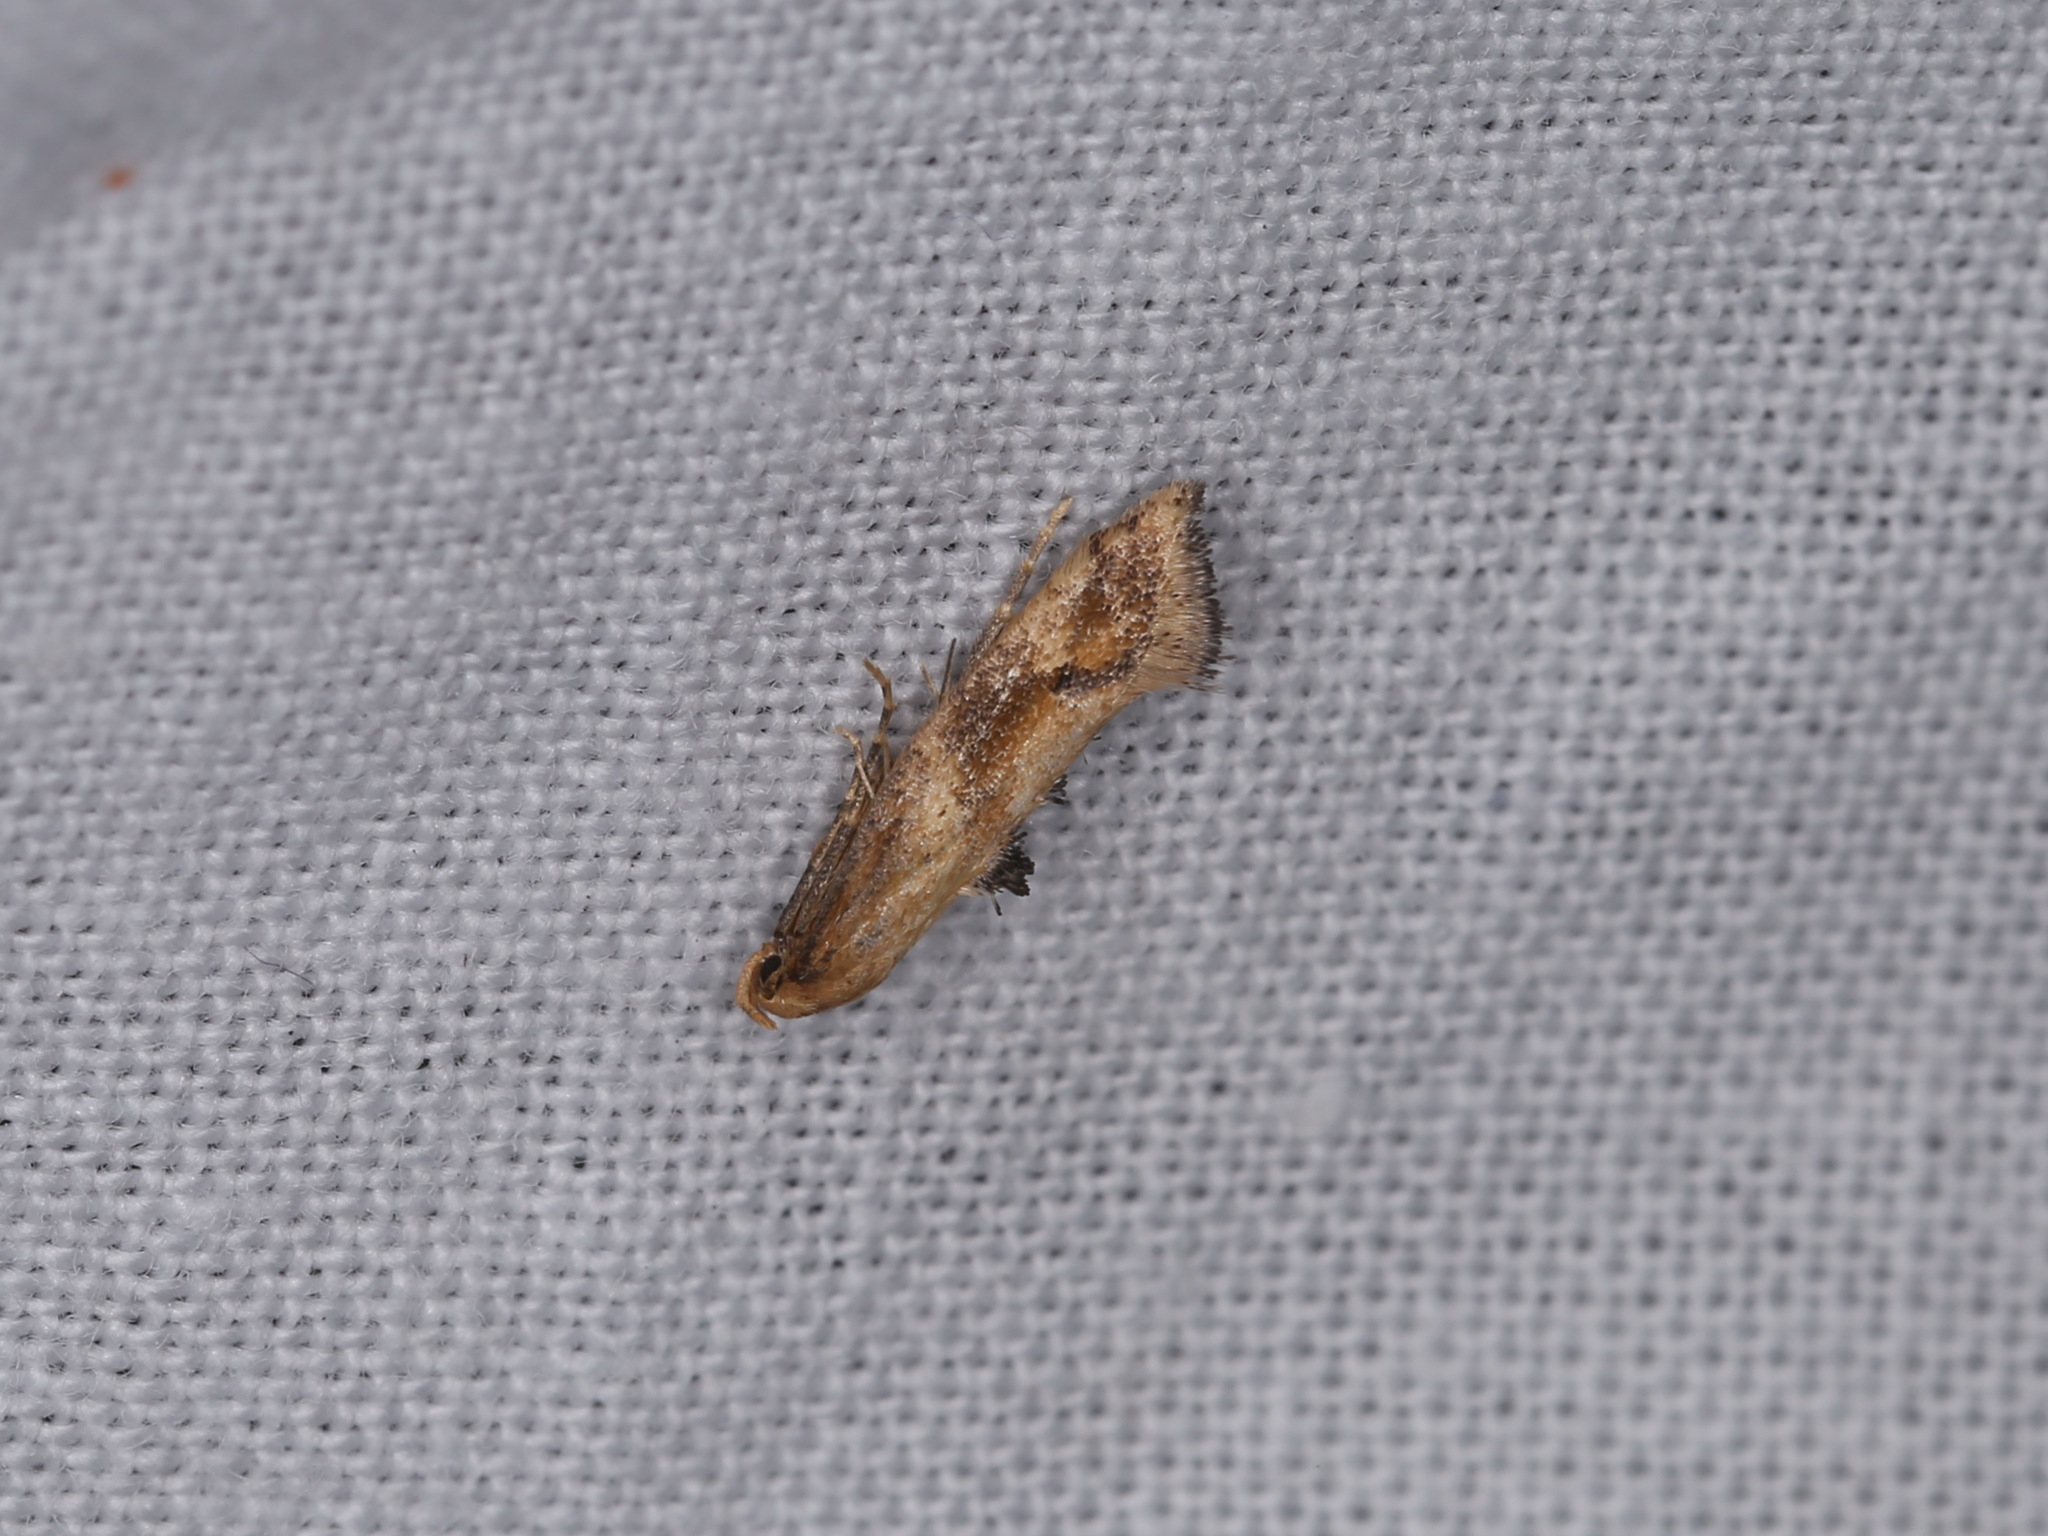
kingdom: Animalia
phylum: Arthropoda
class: Insecta
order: Lepidoptera
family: Epermeniidae
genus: Epermenia
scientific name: Epermenia illigerella
